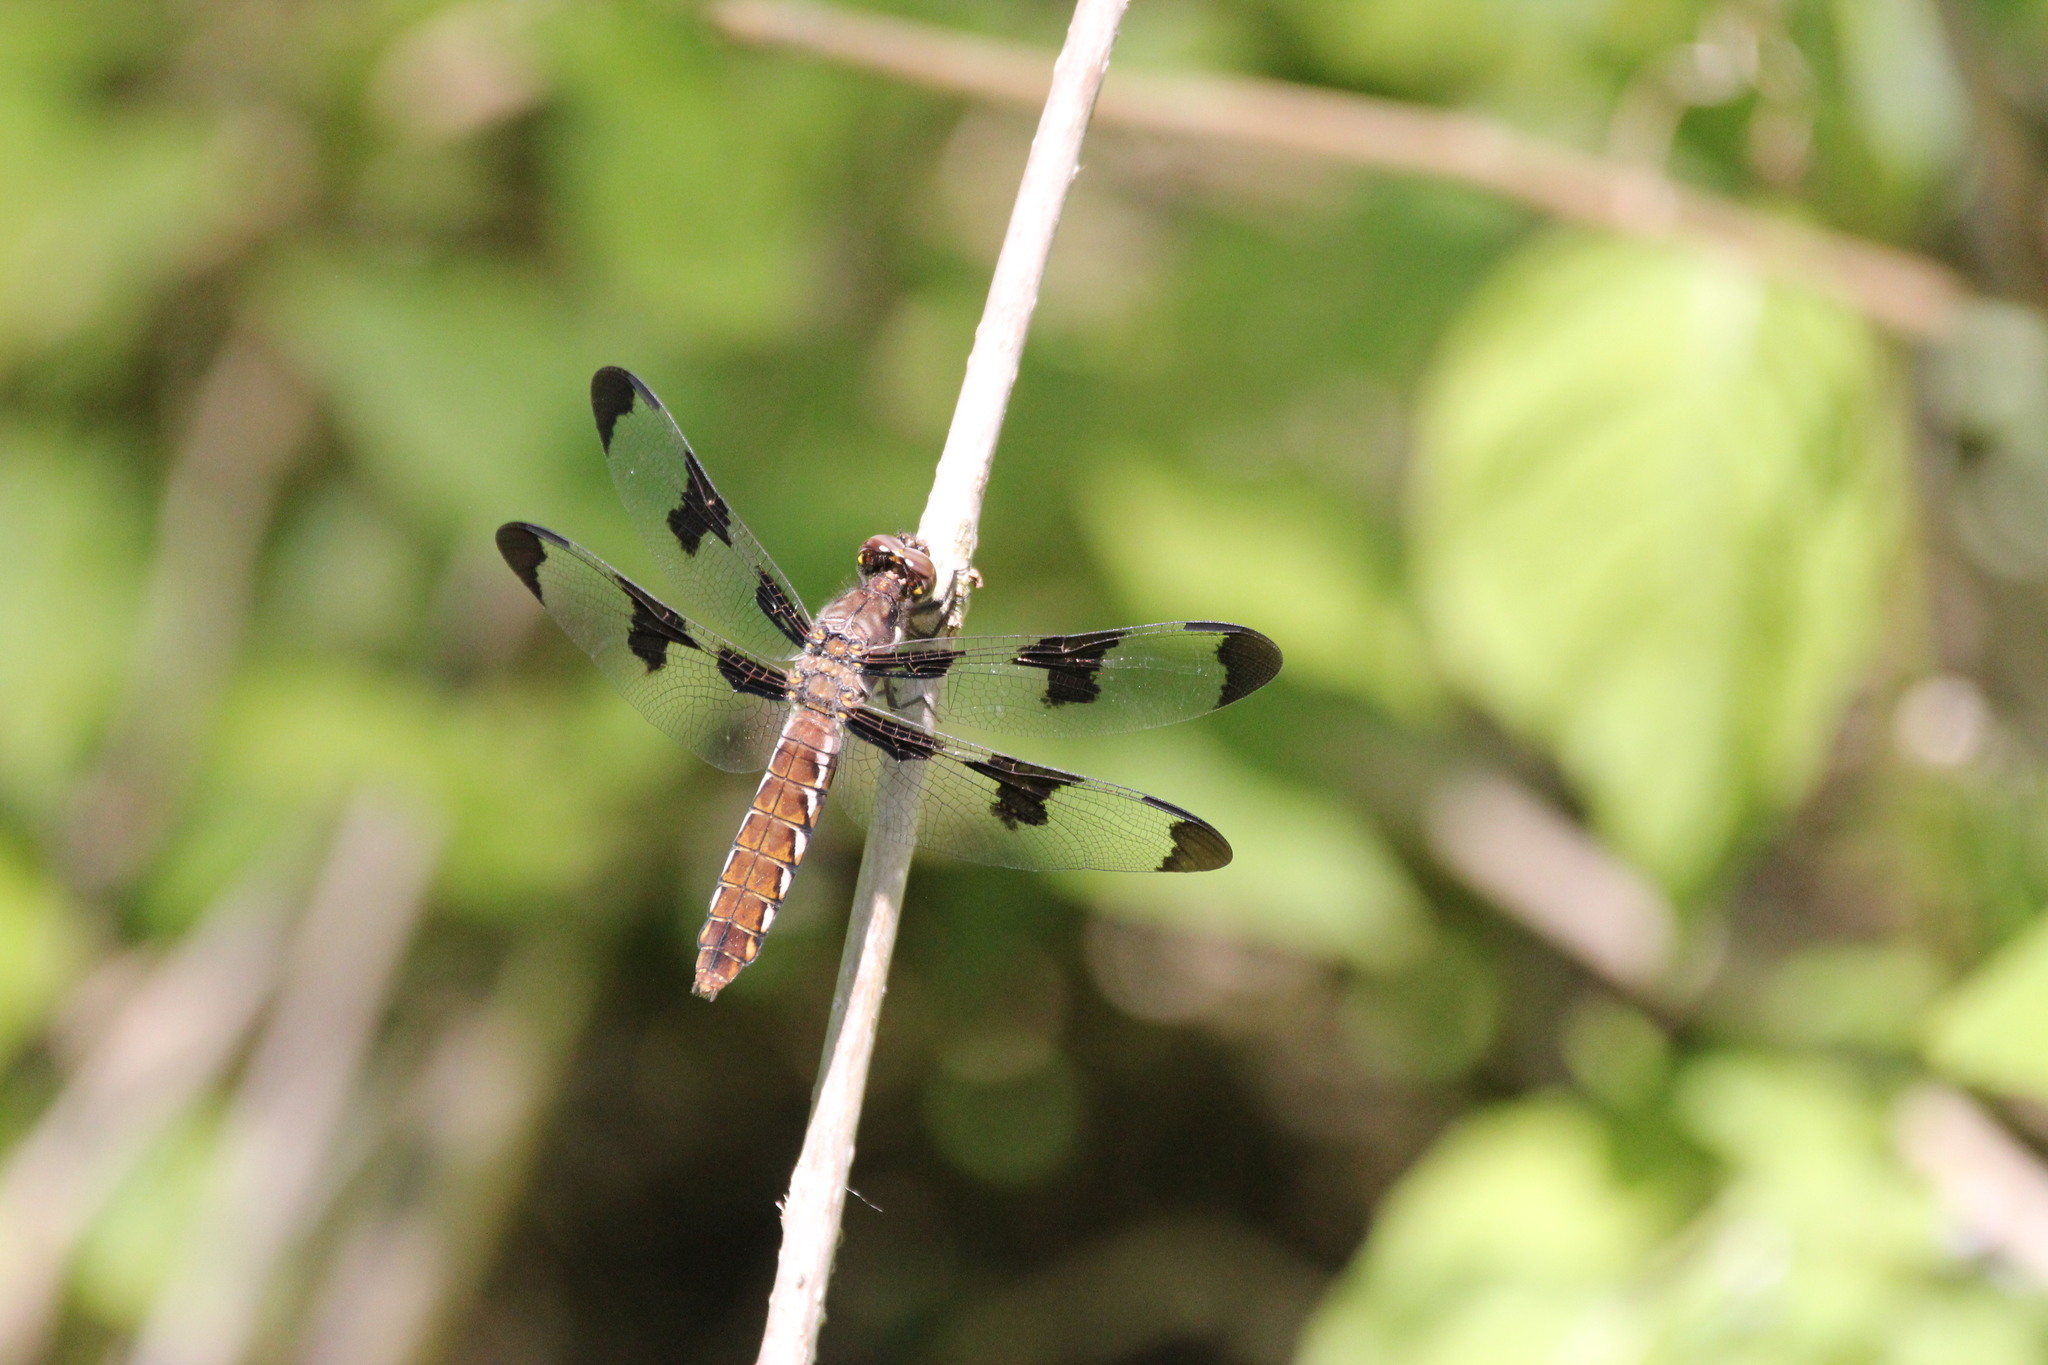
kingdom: Animalia
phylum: Arthropoda
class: Insecta
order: Odonata
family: Libellulidae
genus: Plathemis
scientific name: Plathemis lydia
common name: Common whitetail
